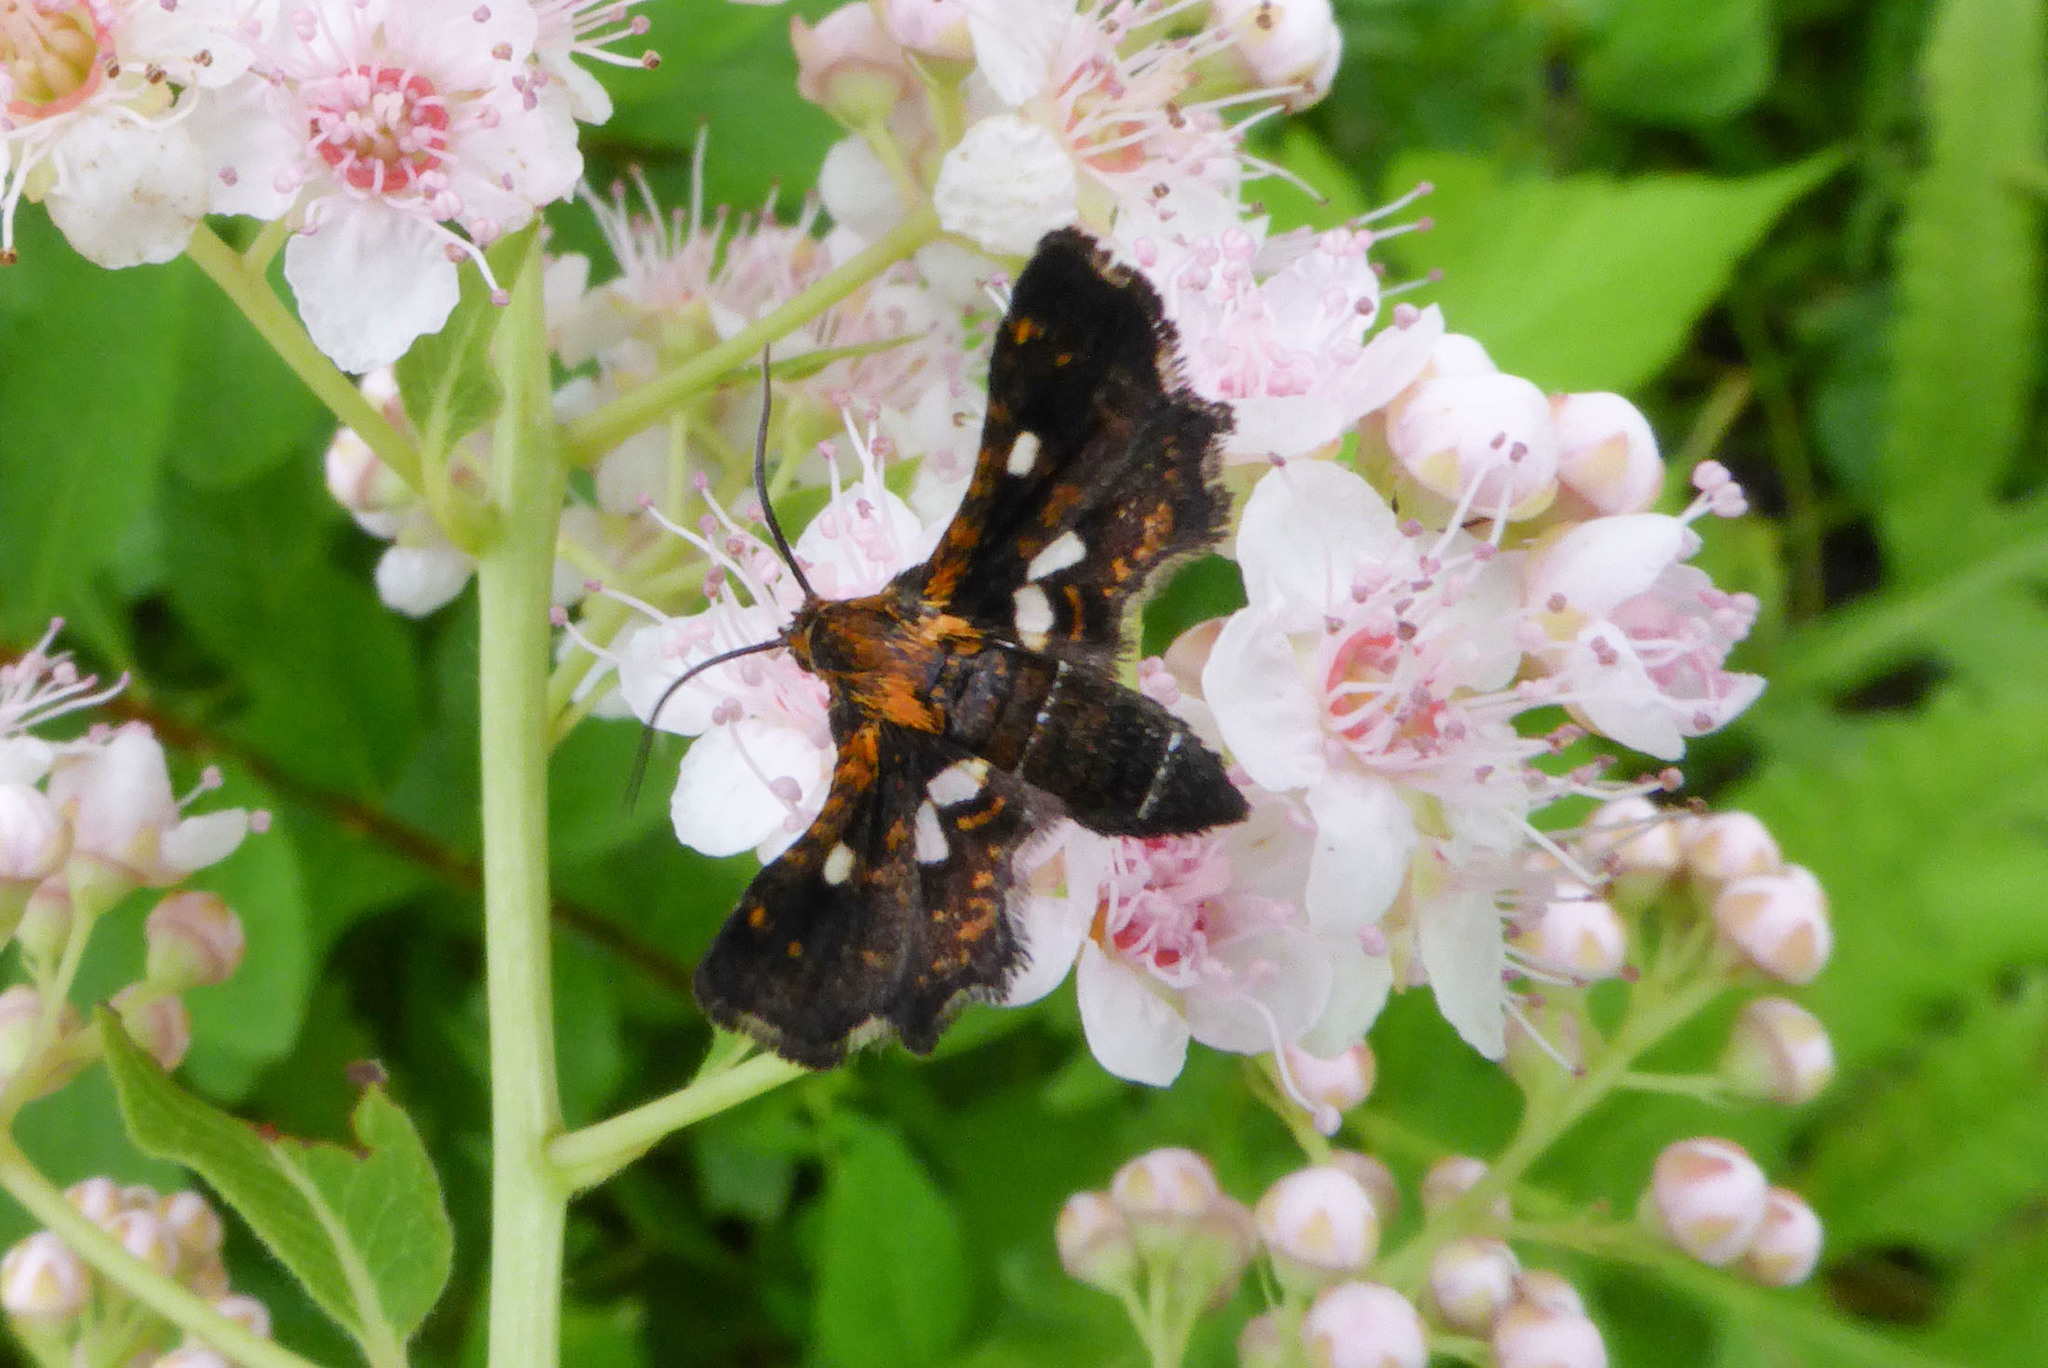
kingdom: Animalia
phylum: Arthropoda
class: Insecta
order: Lepidoptera
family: Thyrididae
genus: Thyris
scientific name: Thyris maculata
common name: Spotted thyris moth
